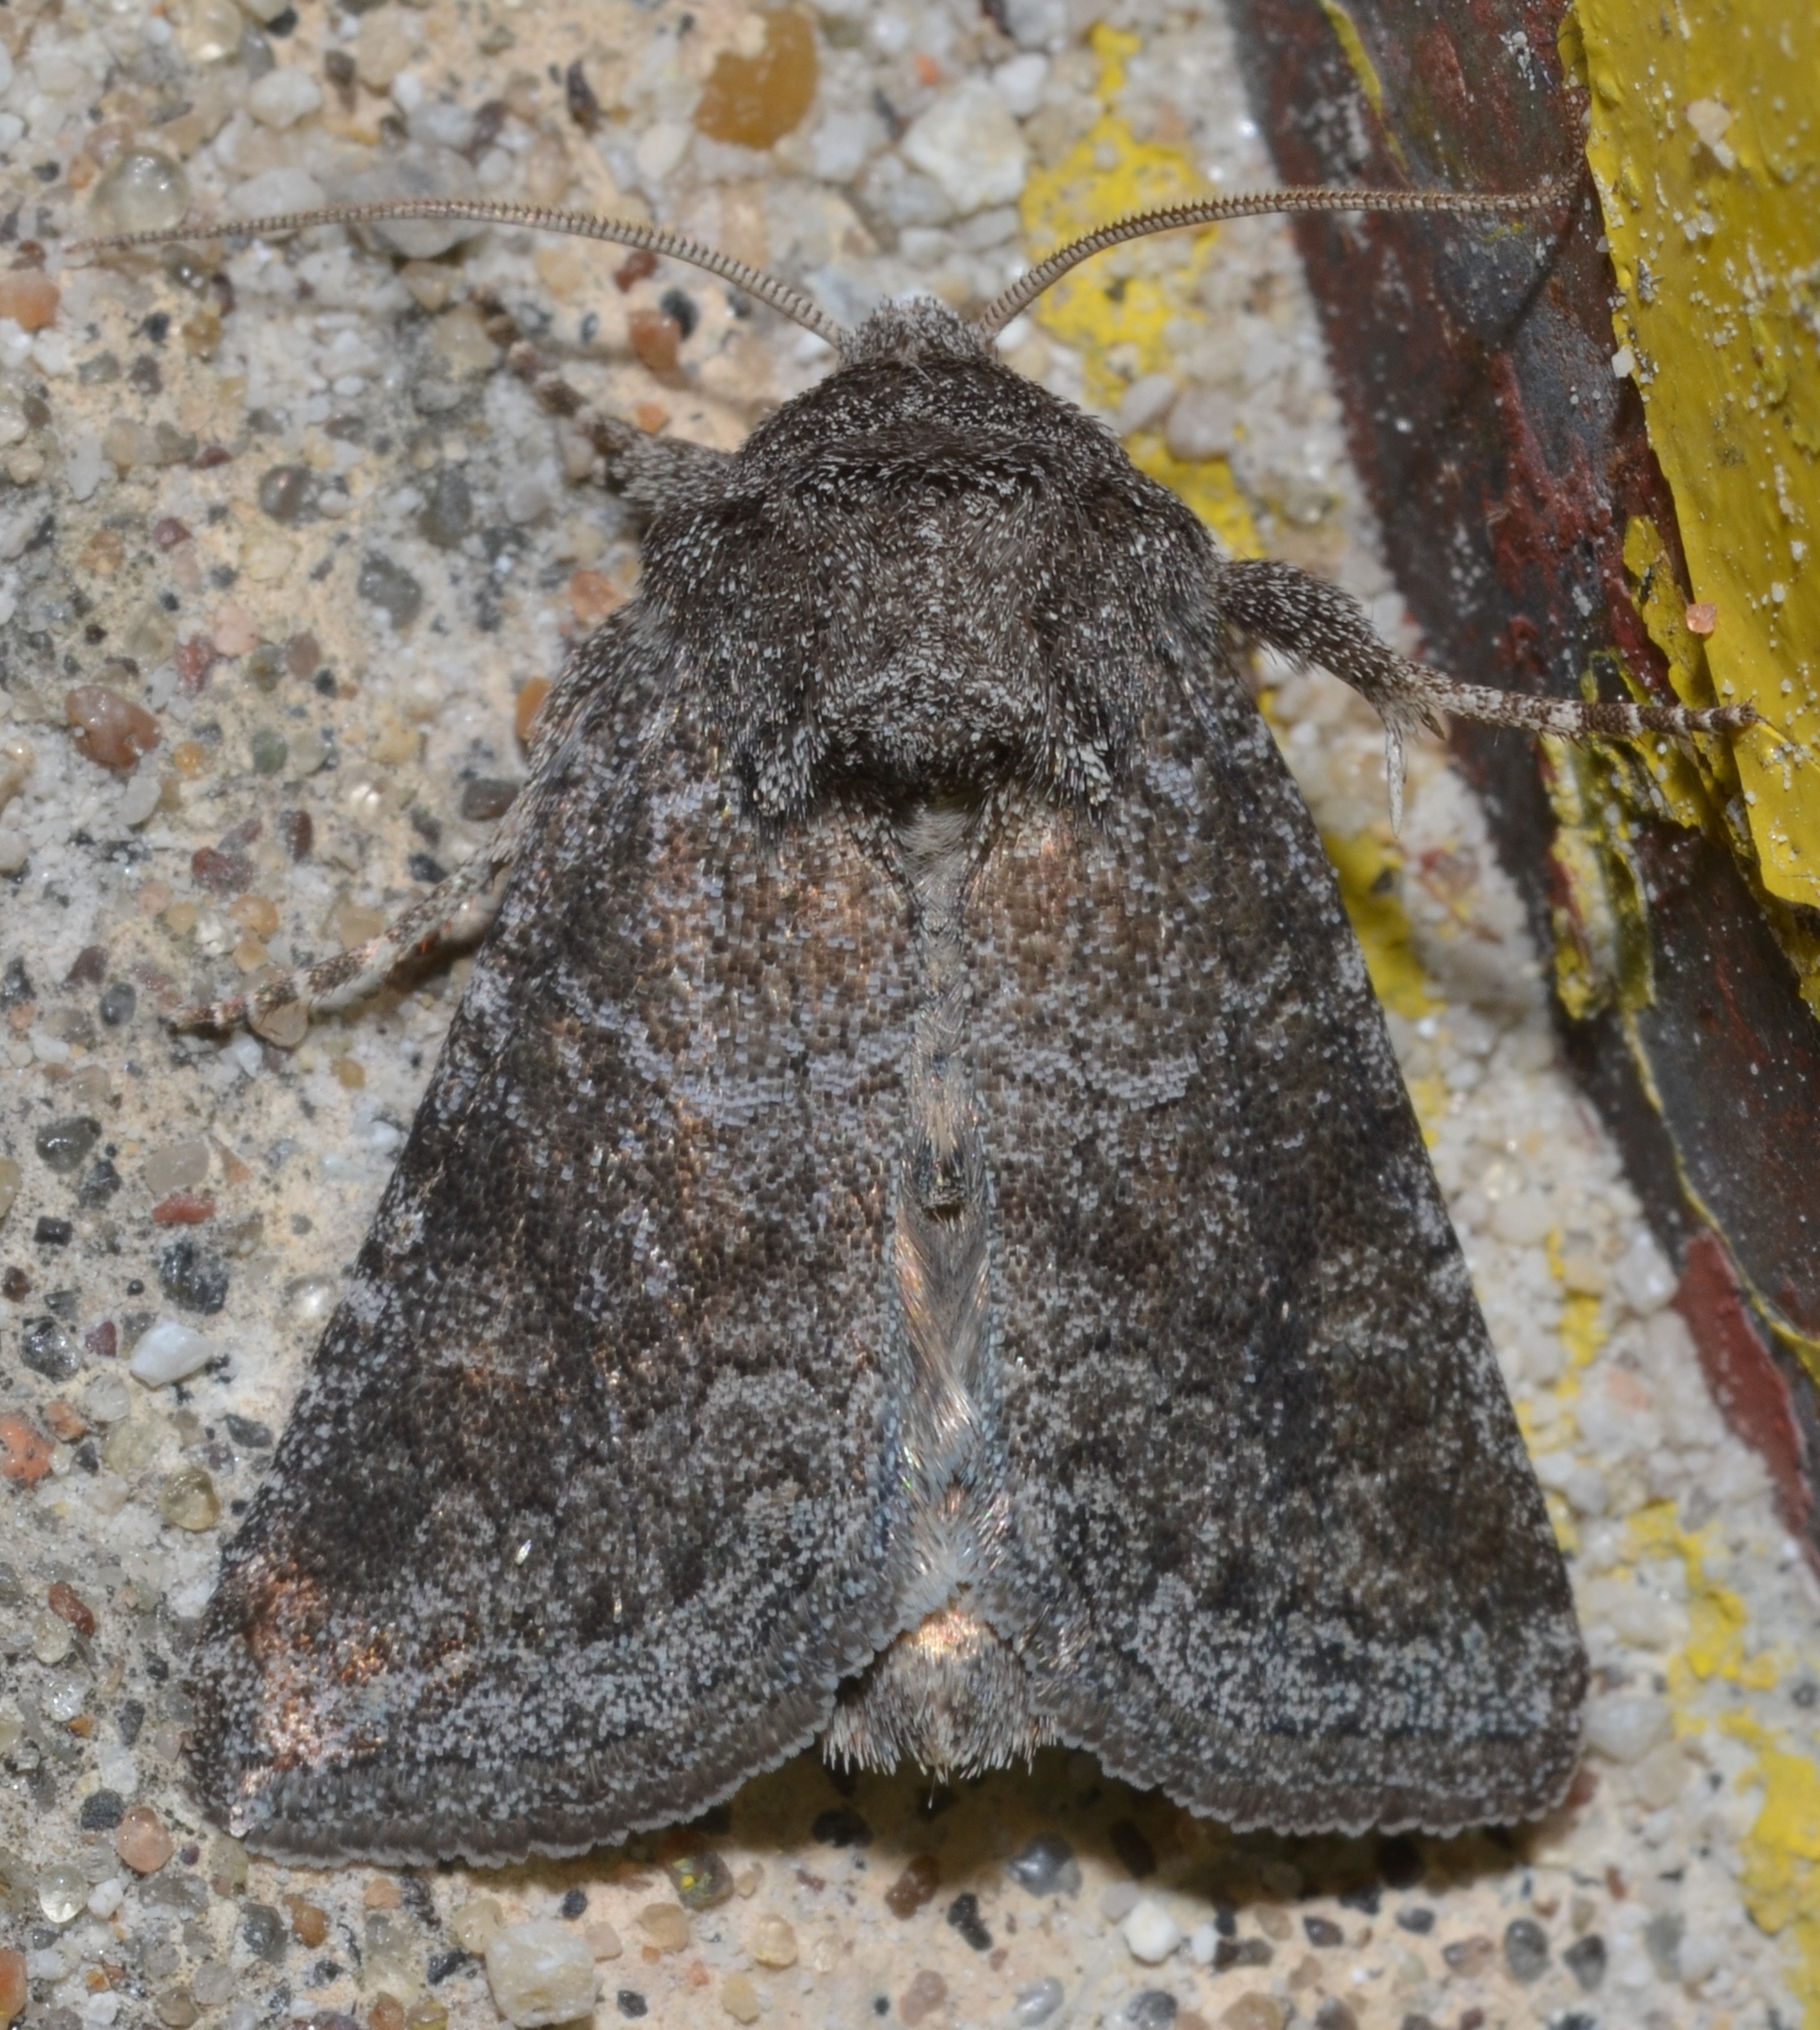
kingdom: Animalia
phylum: Arthropoda
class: Insecta
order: Lepidoptera
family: Noctuidae
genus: Lacinipolia
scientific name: Lacinipolia meditata
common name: Thinker moth
